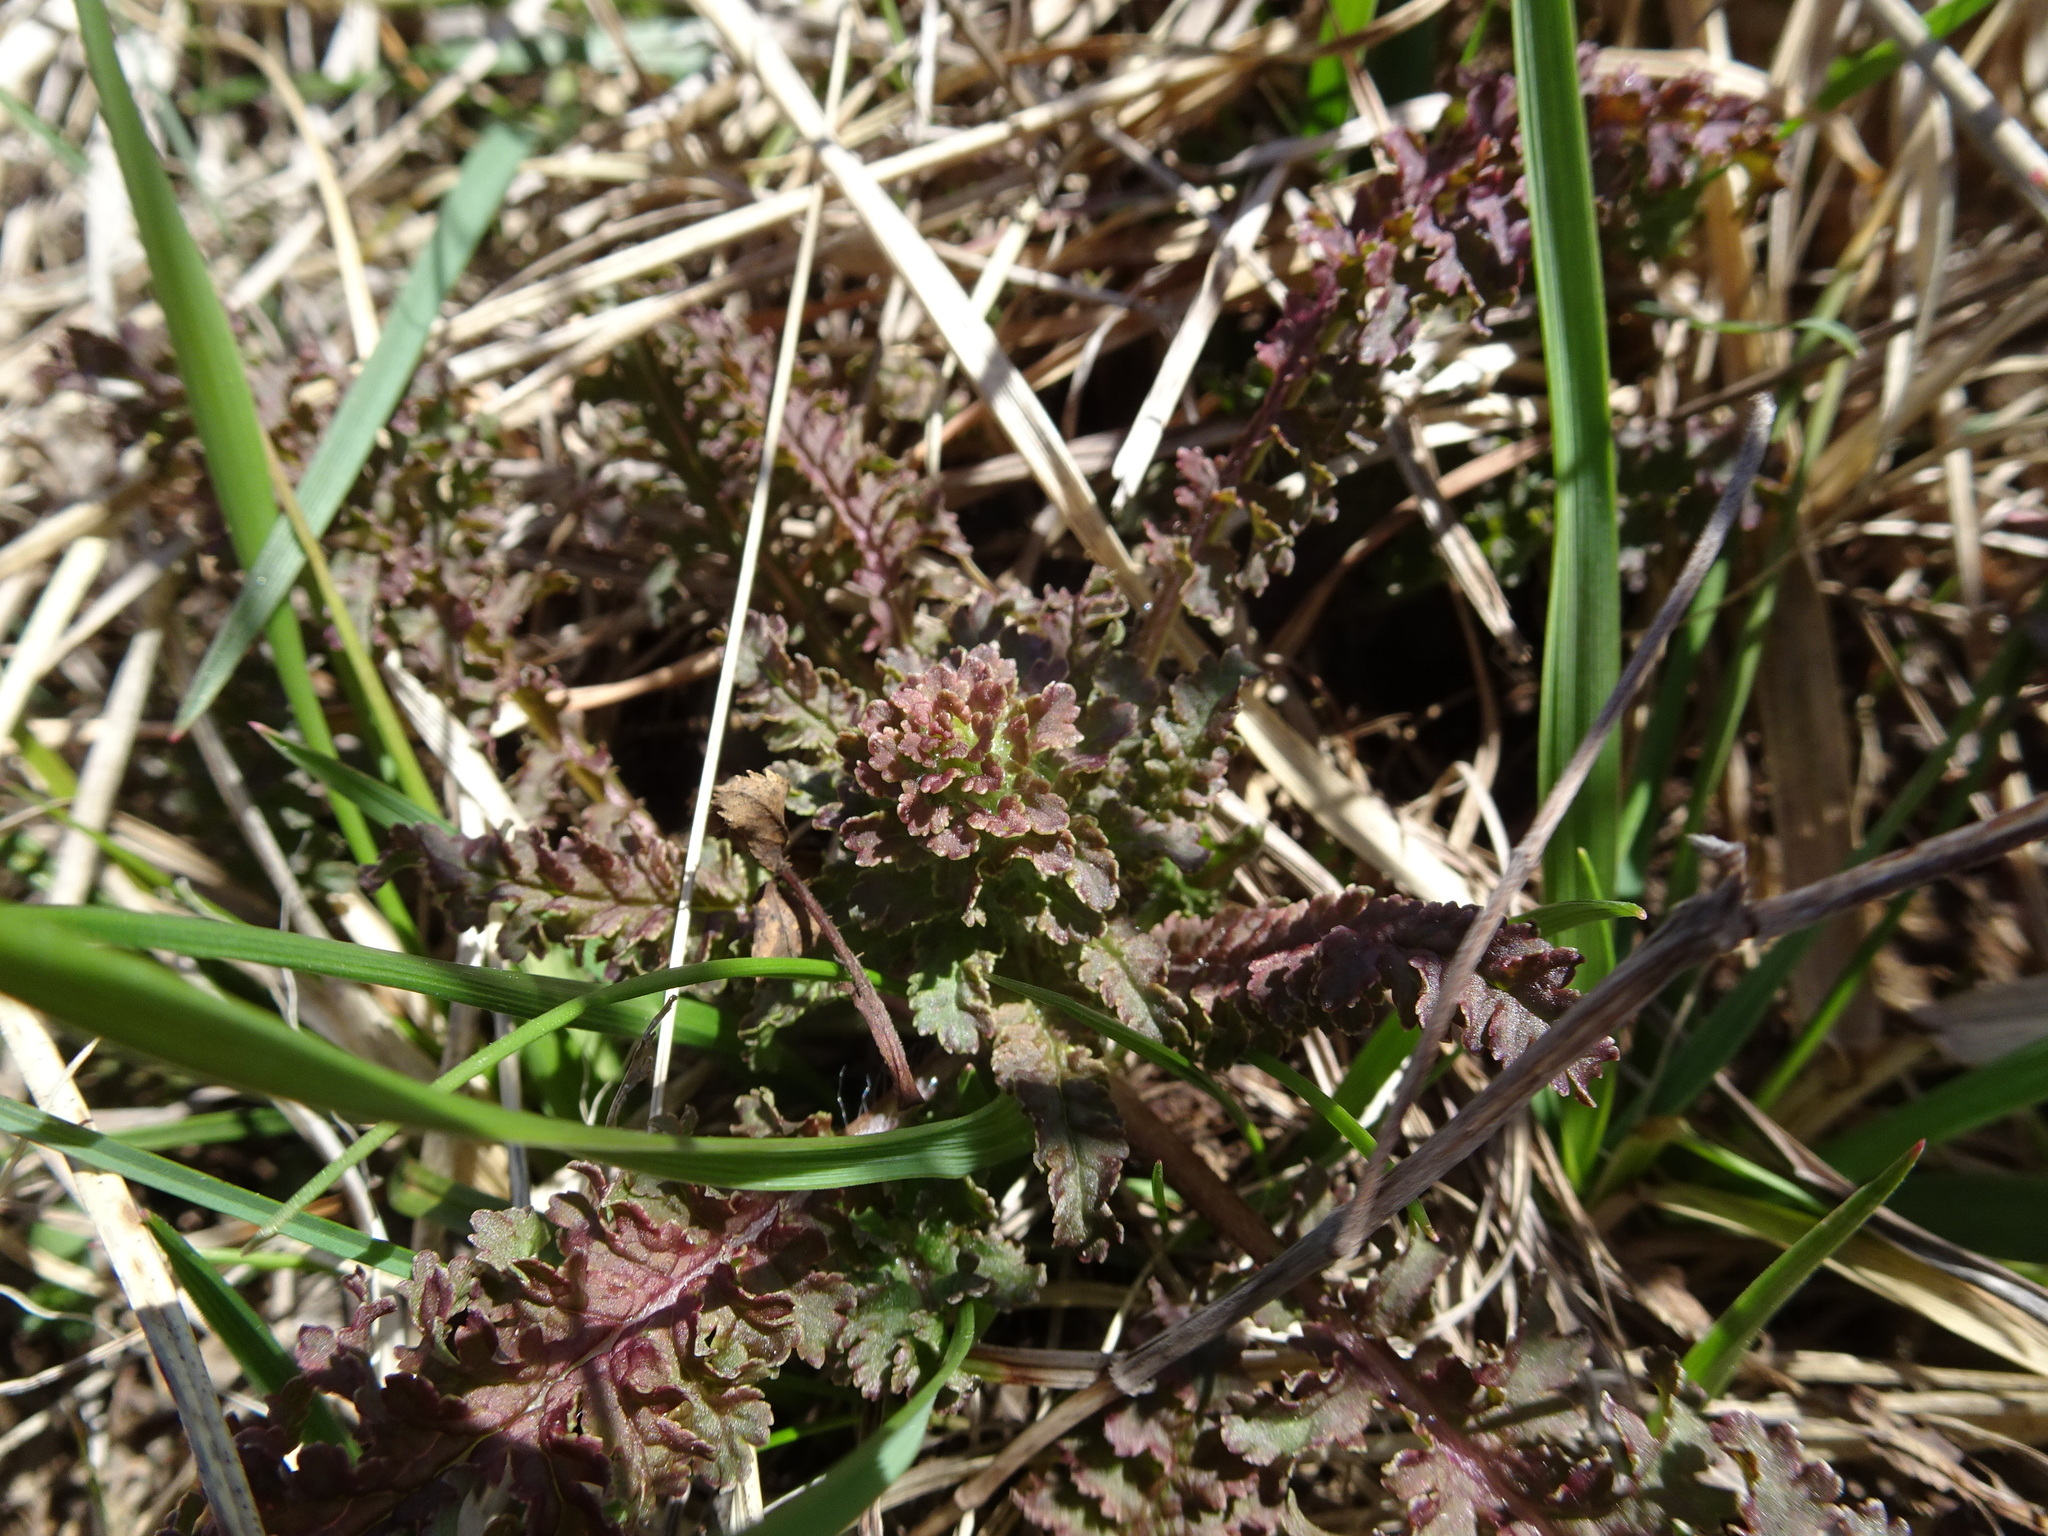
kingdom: Plantae
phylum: Tracheophyta
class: Magnoliopsida
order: Lamiales
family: Orobanchaceae
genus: Pedicularis
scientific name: Pedicularis canadensis
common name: Early lousewort
